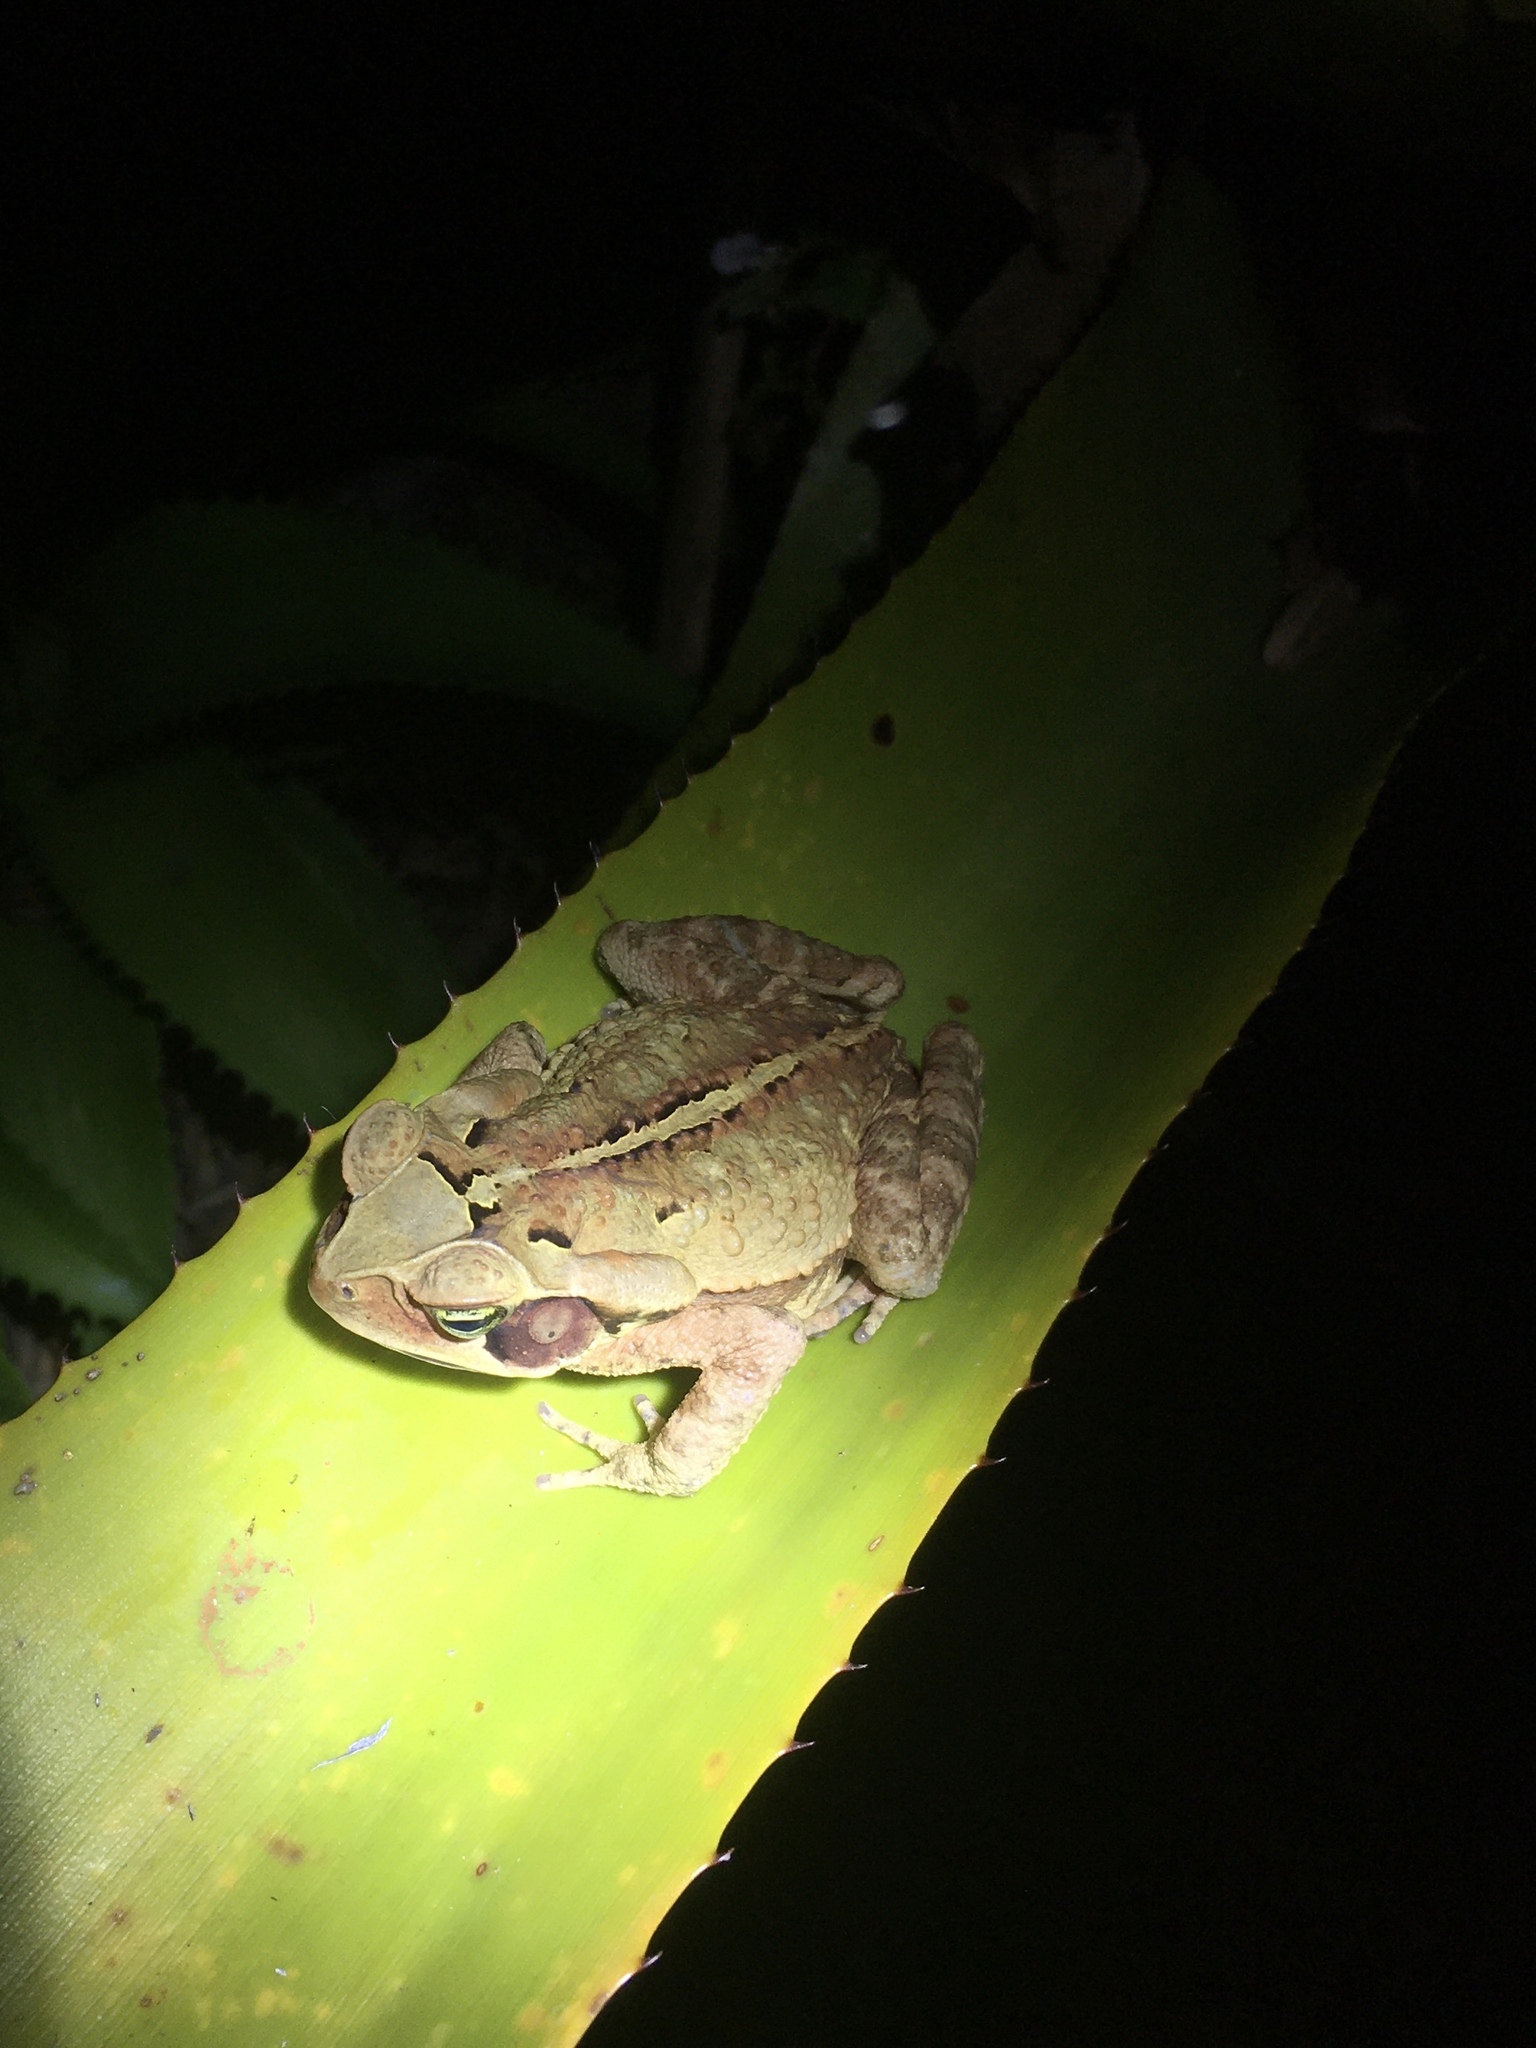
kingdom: Animalia
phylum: Chordata
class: Amphibia
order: Anura
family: Bufonidae
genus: Rhinella
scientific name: Rhinella crucifer
